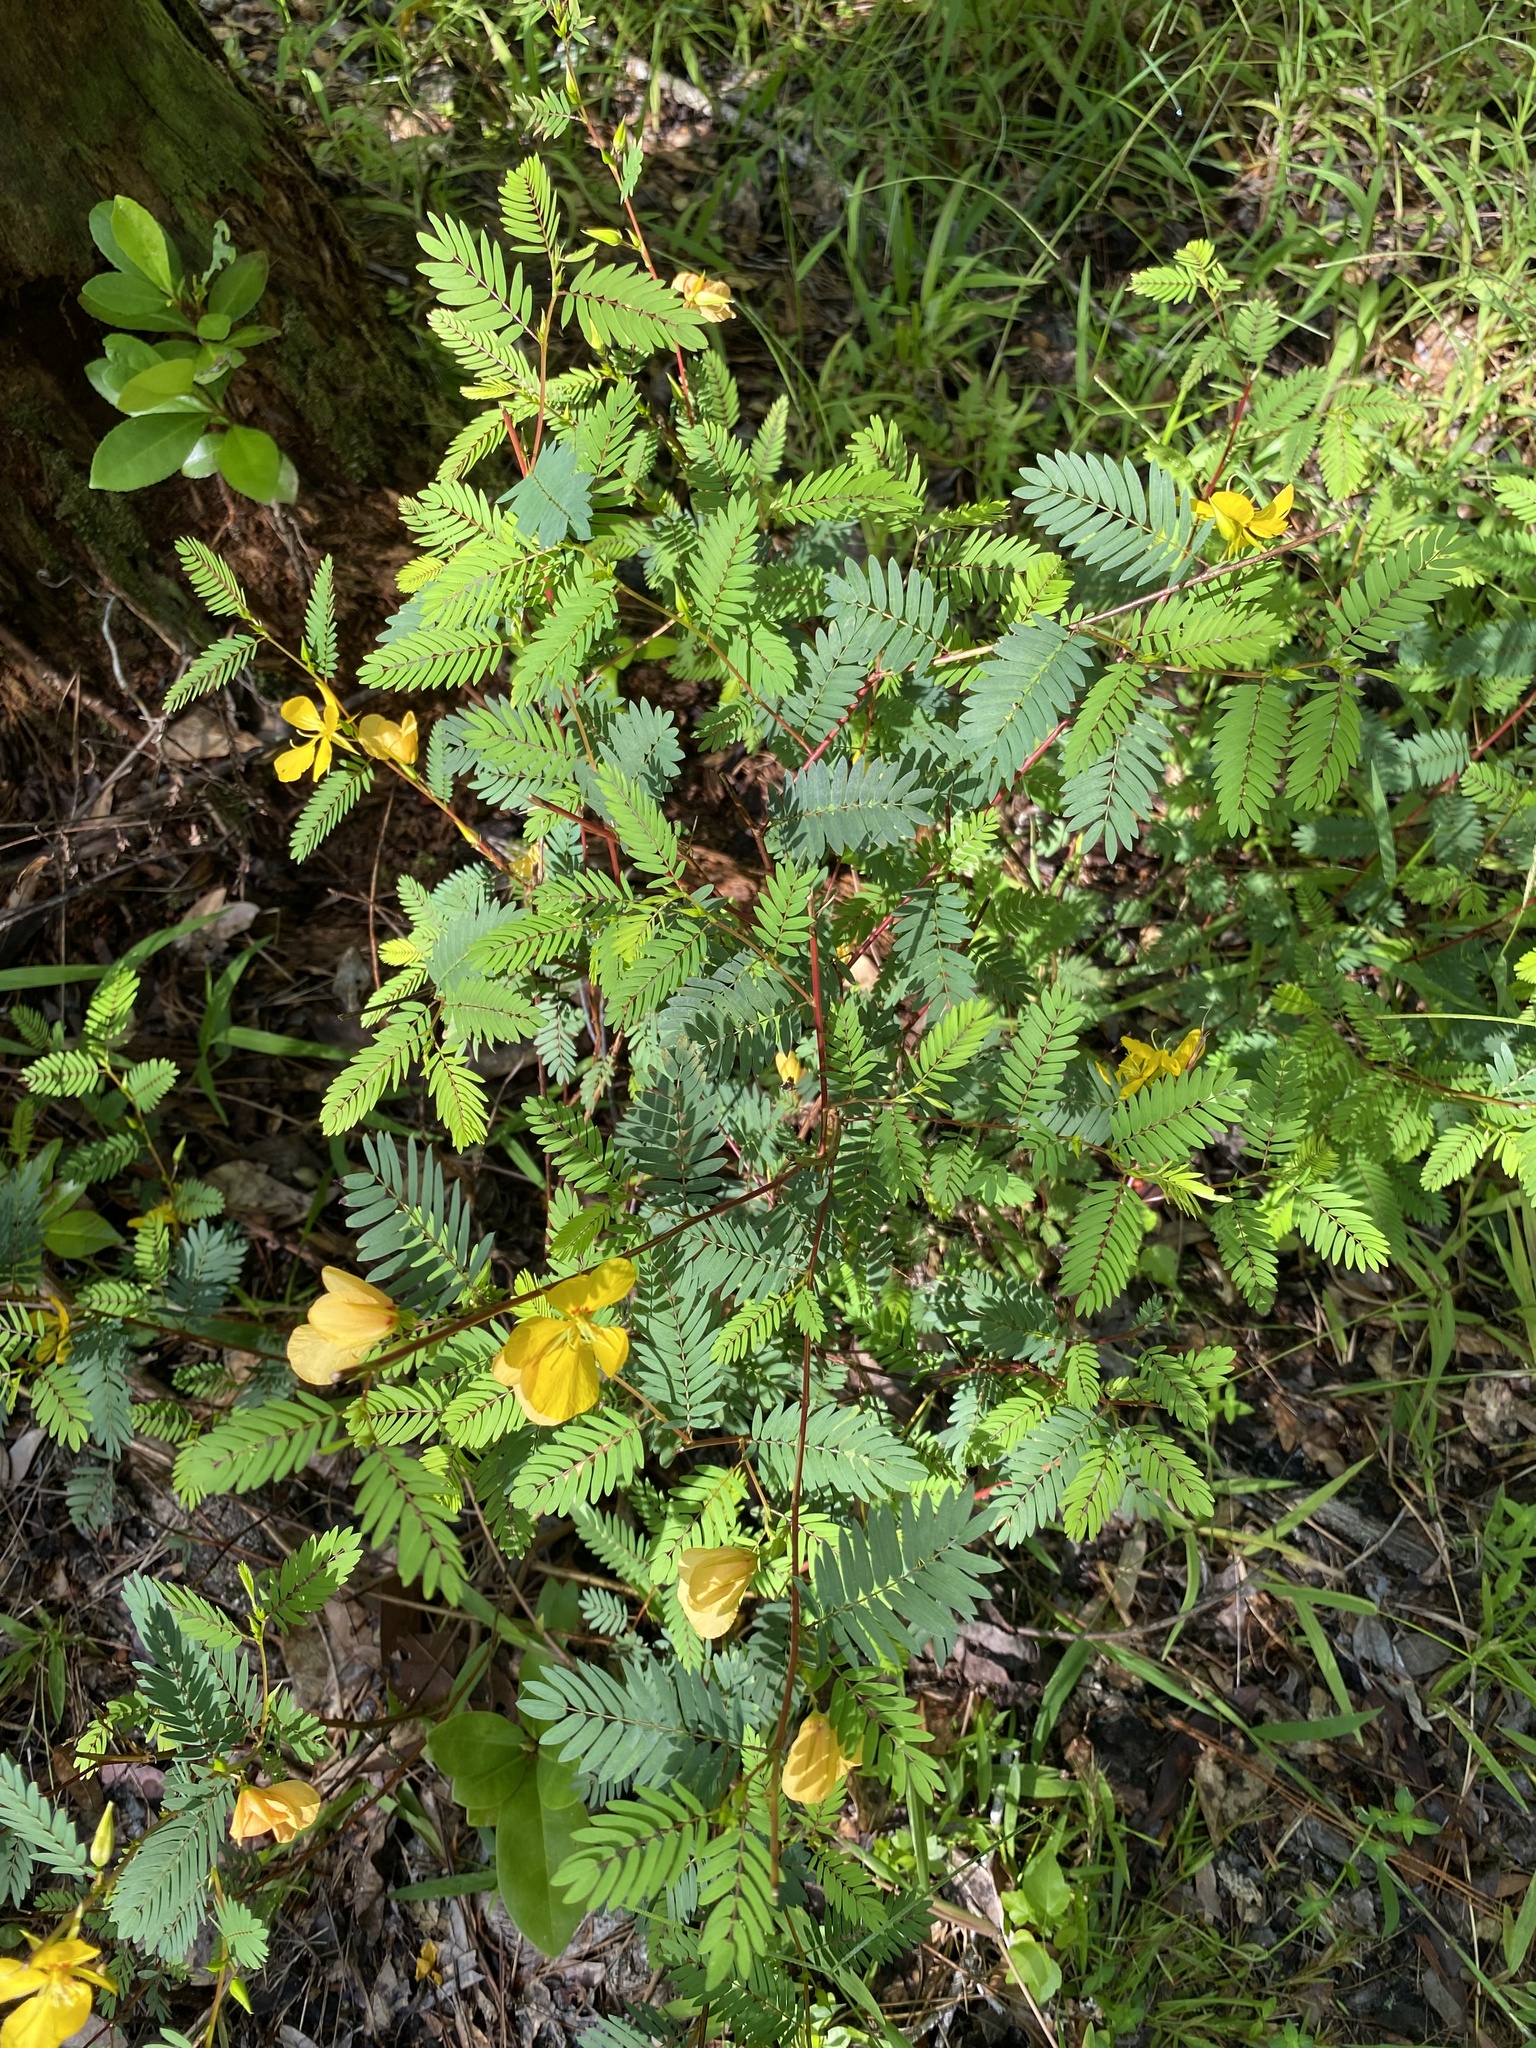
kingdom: Plantae
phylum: Tracheophyta
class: Magnoliopsida
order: Fabales
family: Fabaceae
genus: Chamaecrista
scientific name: Chamaecrista fasciculata
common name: Golden cassia
